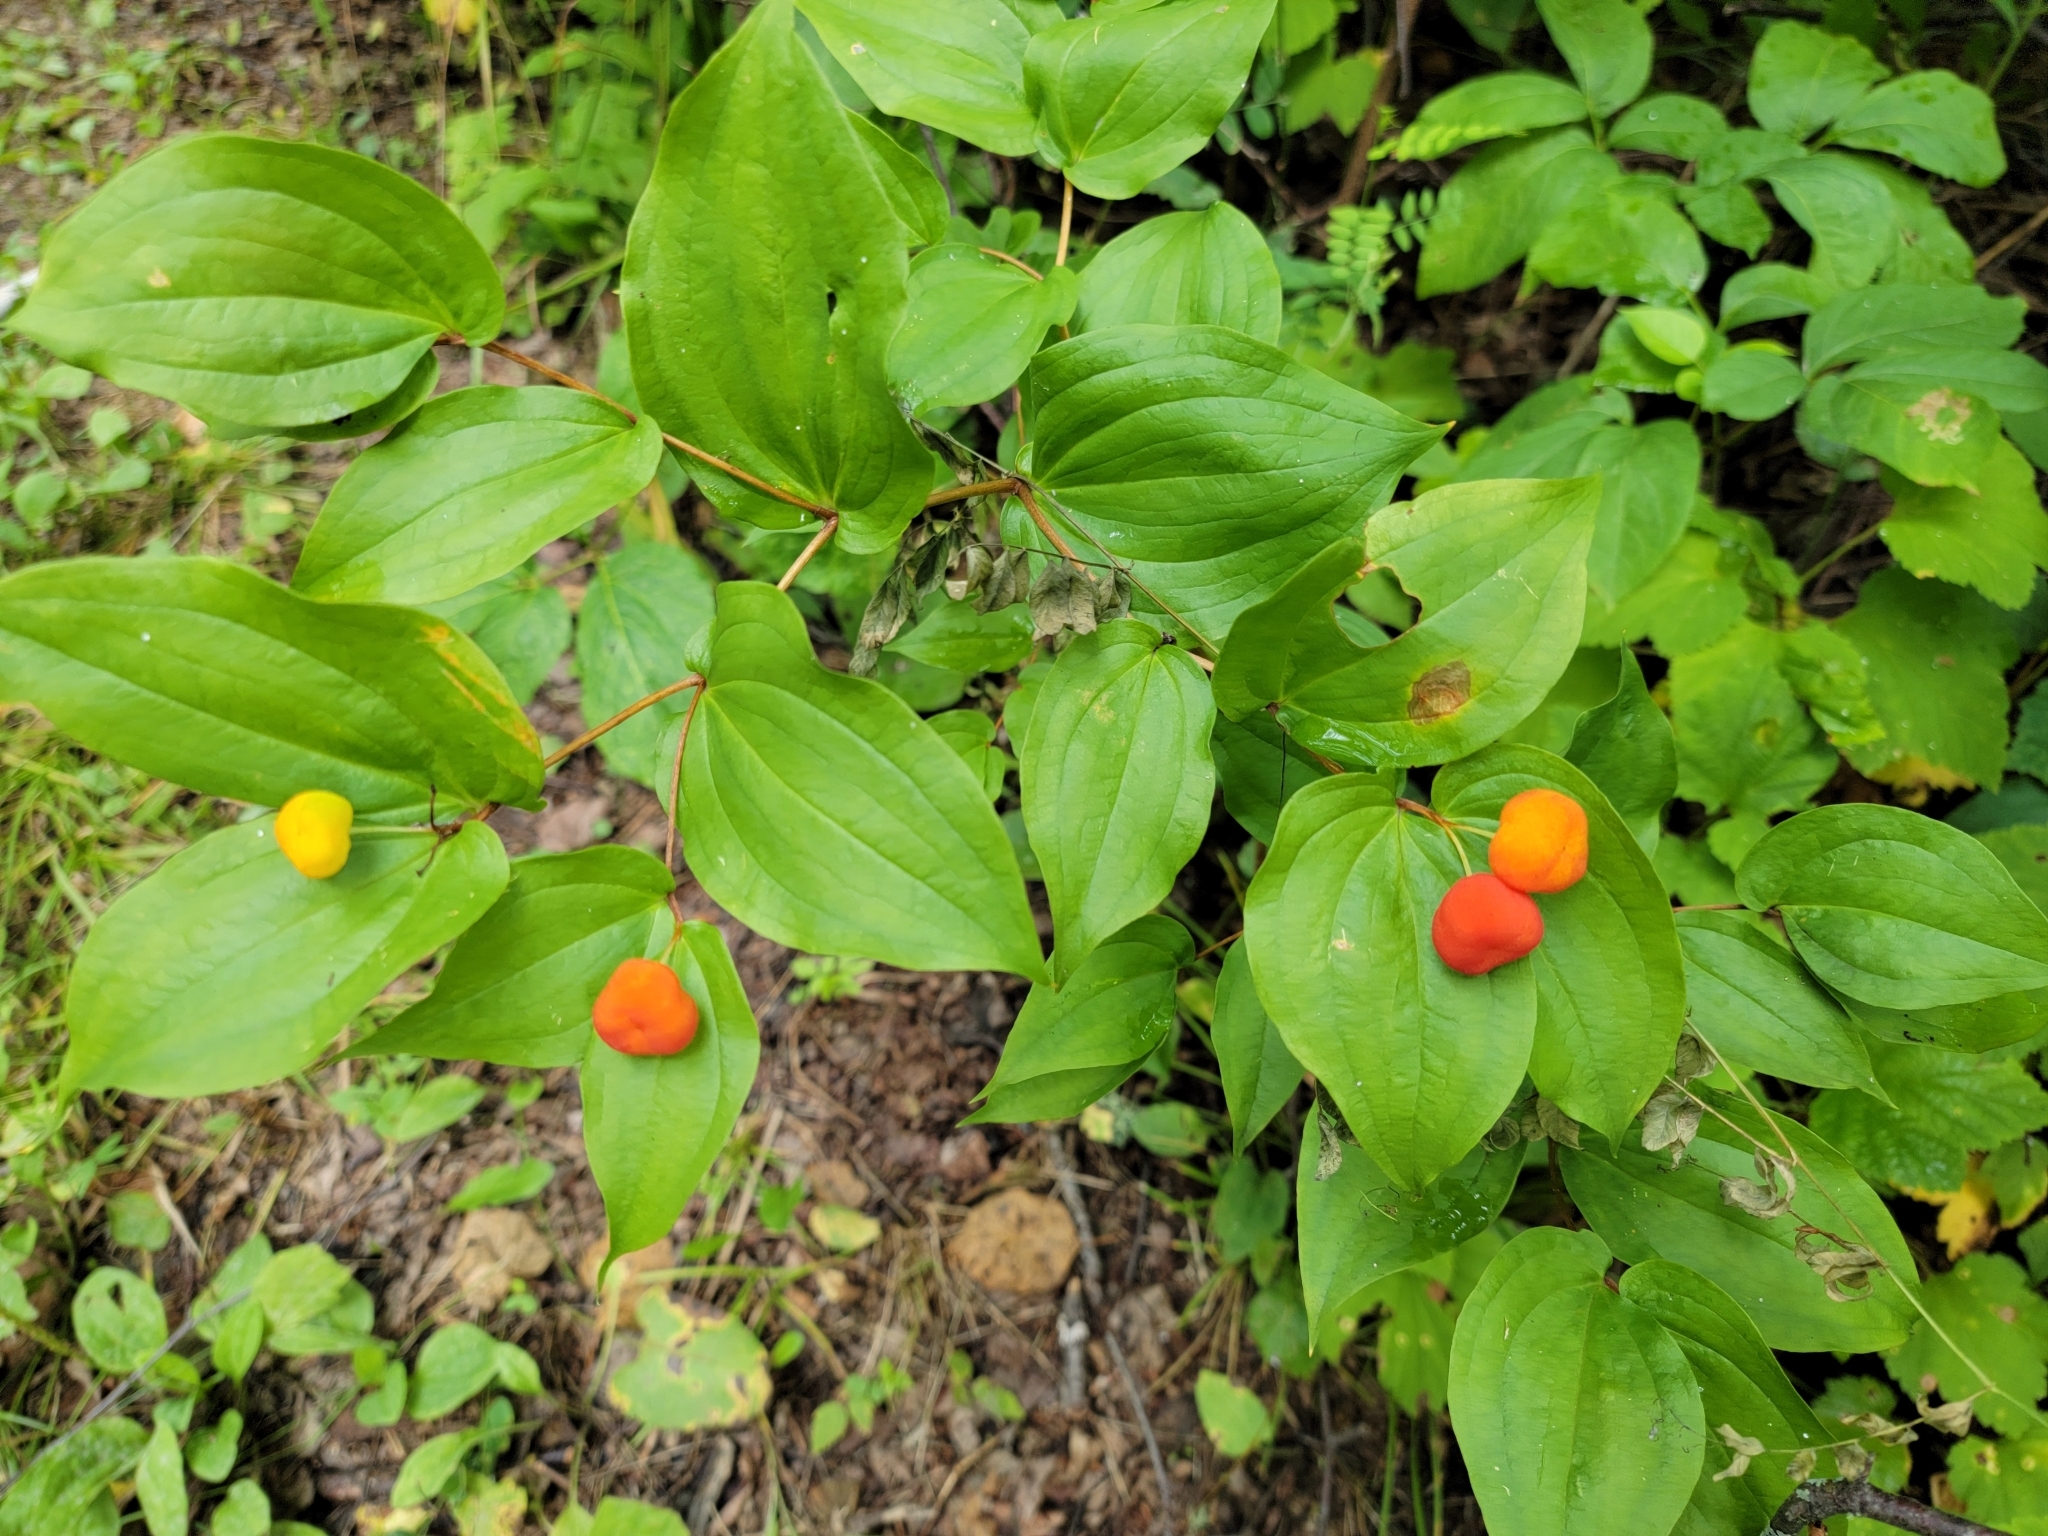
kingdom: Plantae
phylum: Tracheophyta
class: Liliopsida
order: Liliales
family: Liliaceae
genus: Prosartes
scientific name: Prosartes trachycarpa
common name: Rough-fruit fairy-bells
